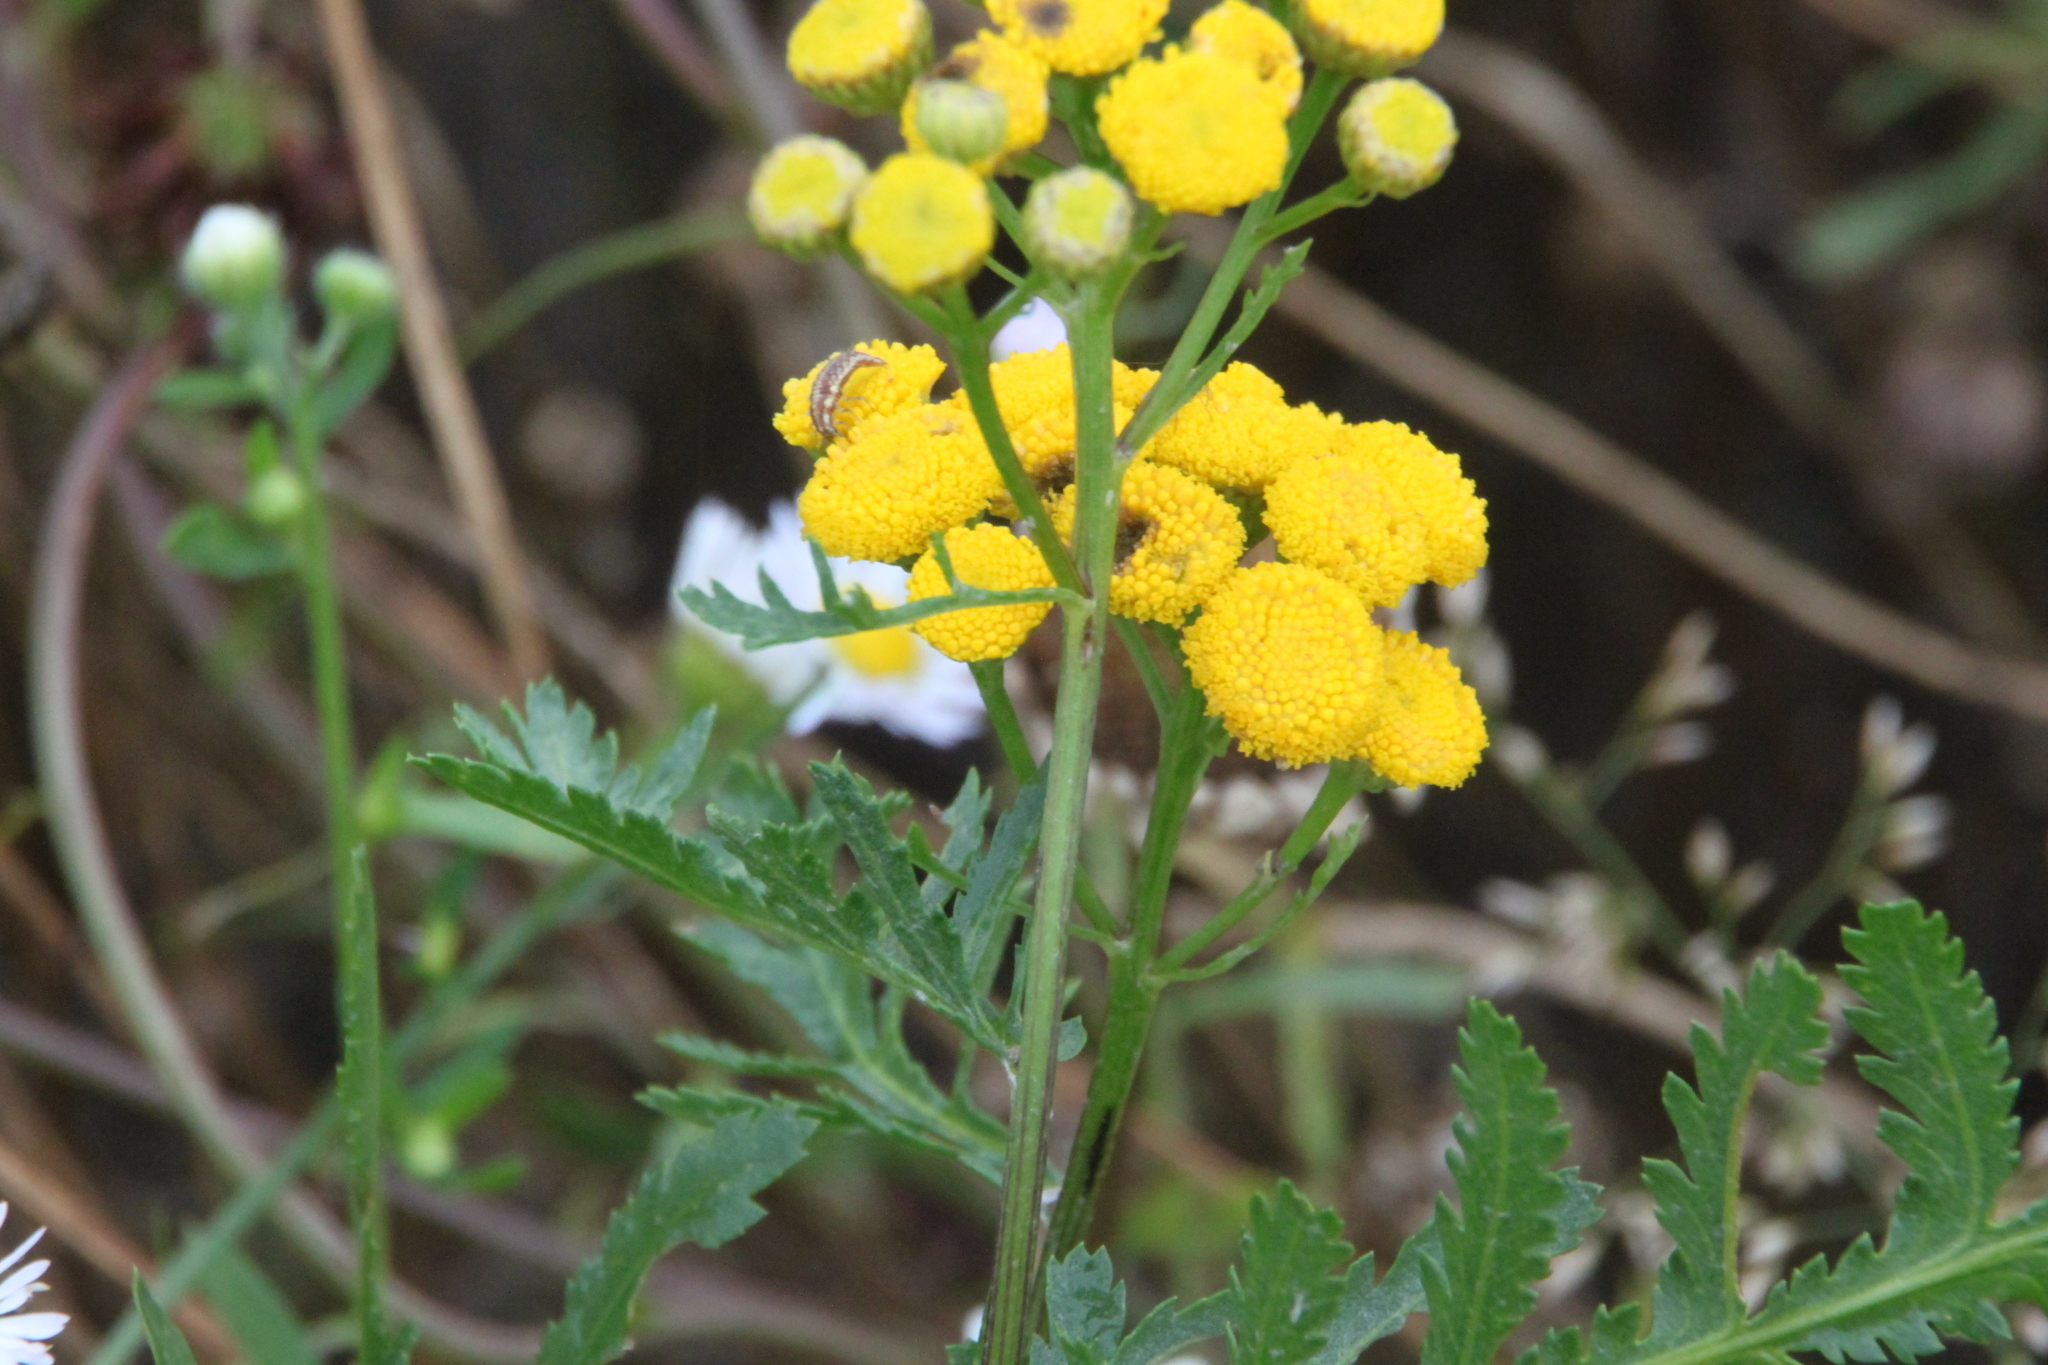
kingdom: Plantae
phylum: Tracheophyta
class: Magnoliopsida
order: Asterales
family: Asteraceae
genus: Tanacetum
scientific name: Tanacetum vulgare
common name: Common tansy
